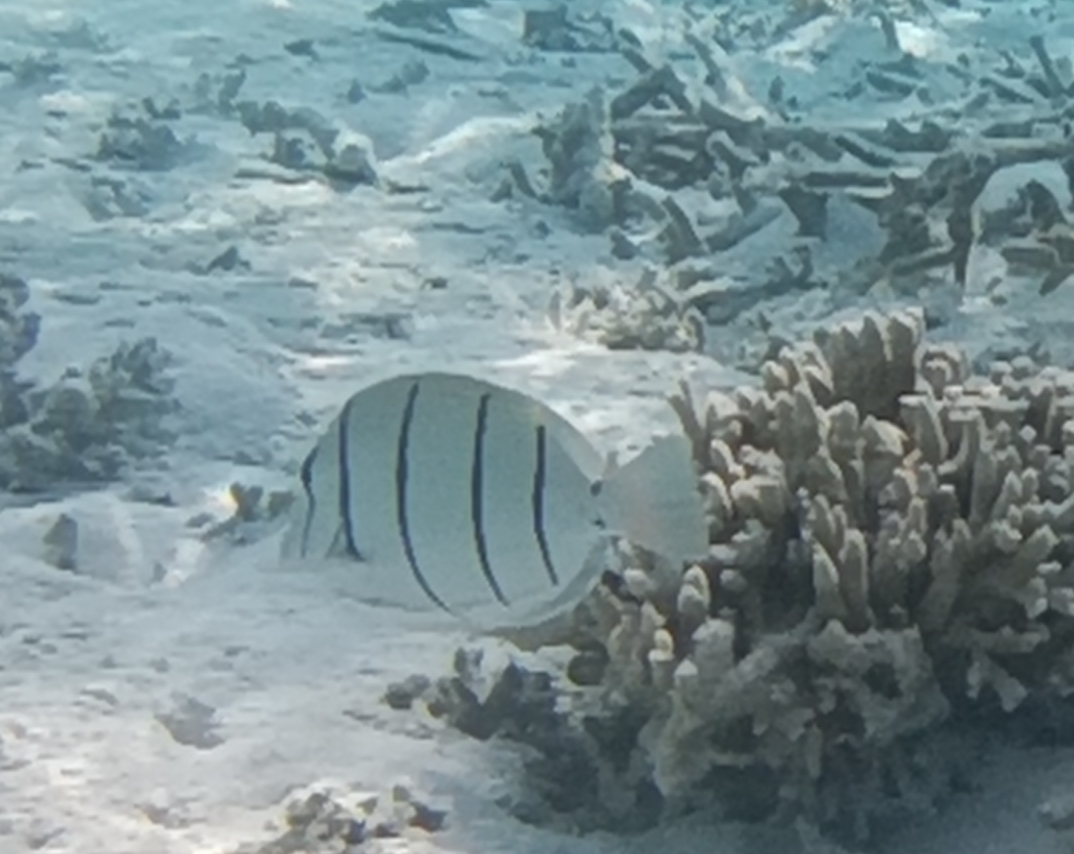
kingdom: Animalia
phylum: Chordata
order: Perciformes
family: Acanthuridae
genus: Acanthurus
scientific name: Acanthurus triostegus
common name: Convict surgeonfish
